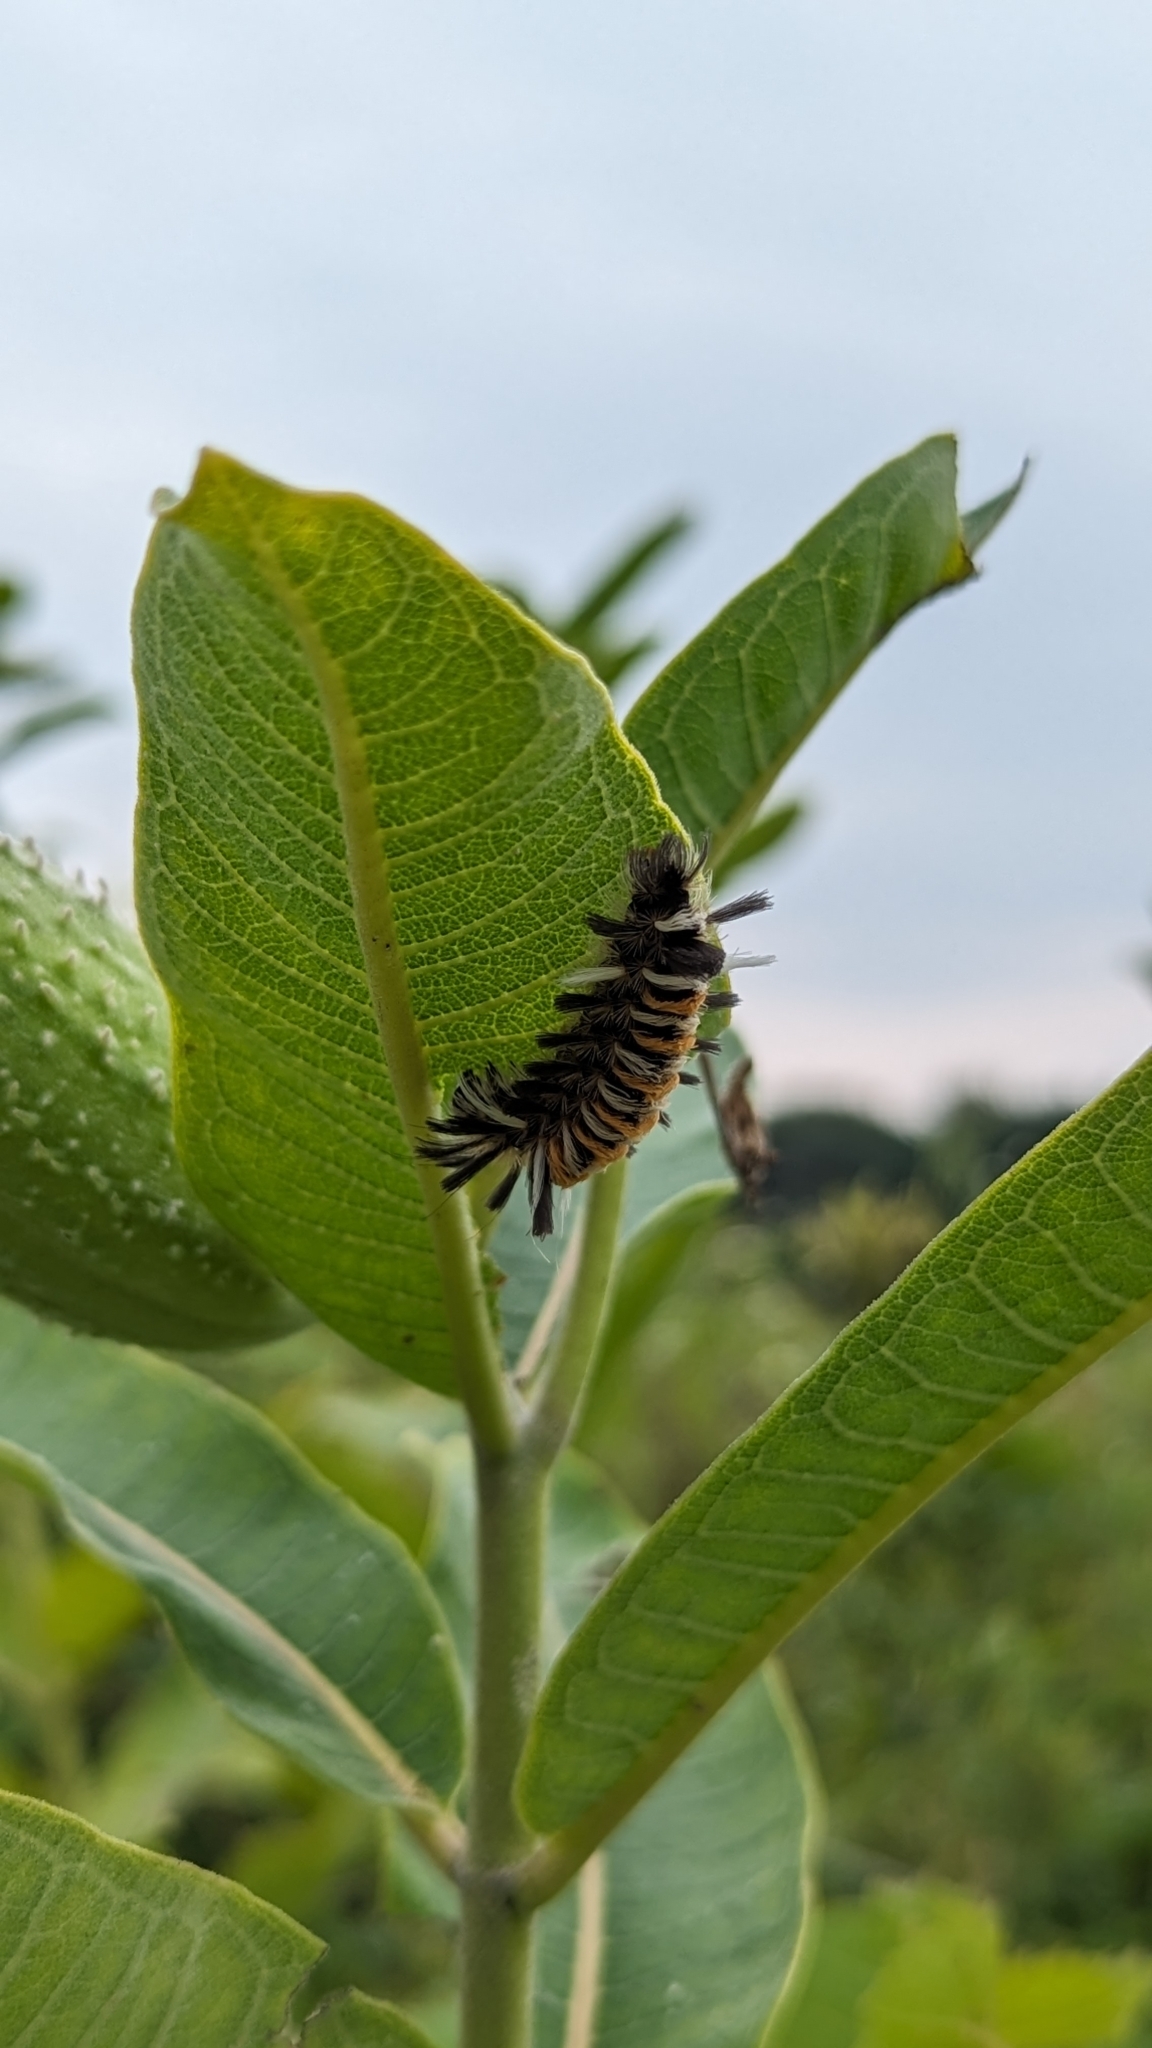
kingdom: Animalia
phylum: Arthropoda
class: Insecta
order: Lepidoptera
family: Erebidae
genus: Euchaetes
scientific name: Euchaetes egle
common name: Milkweed tussock moth
